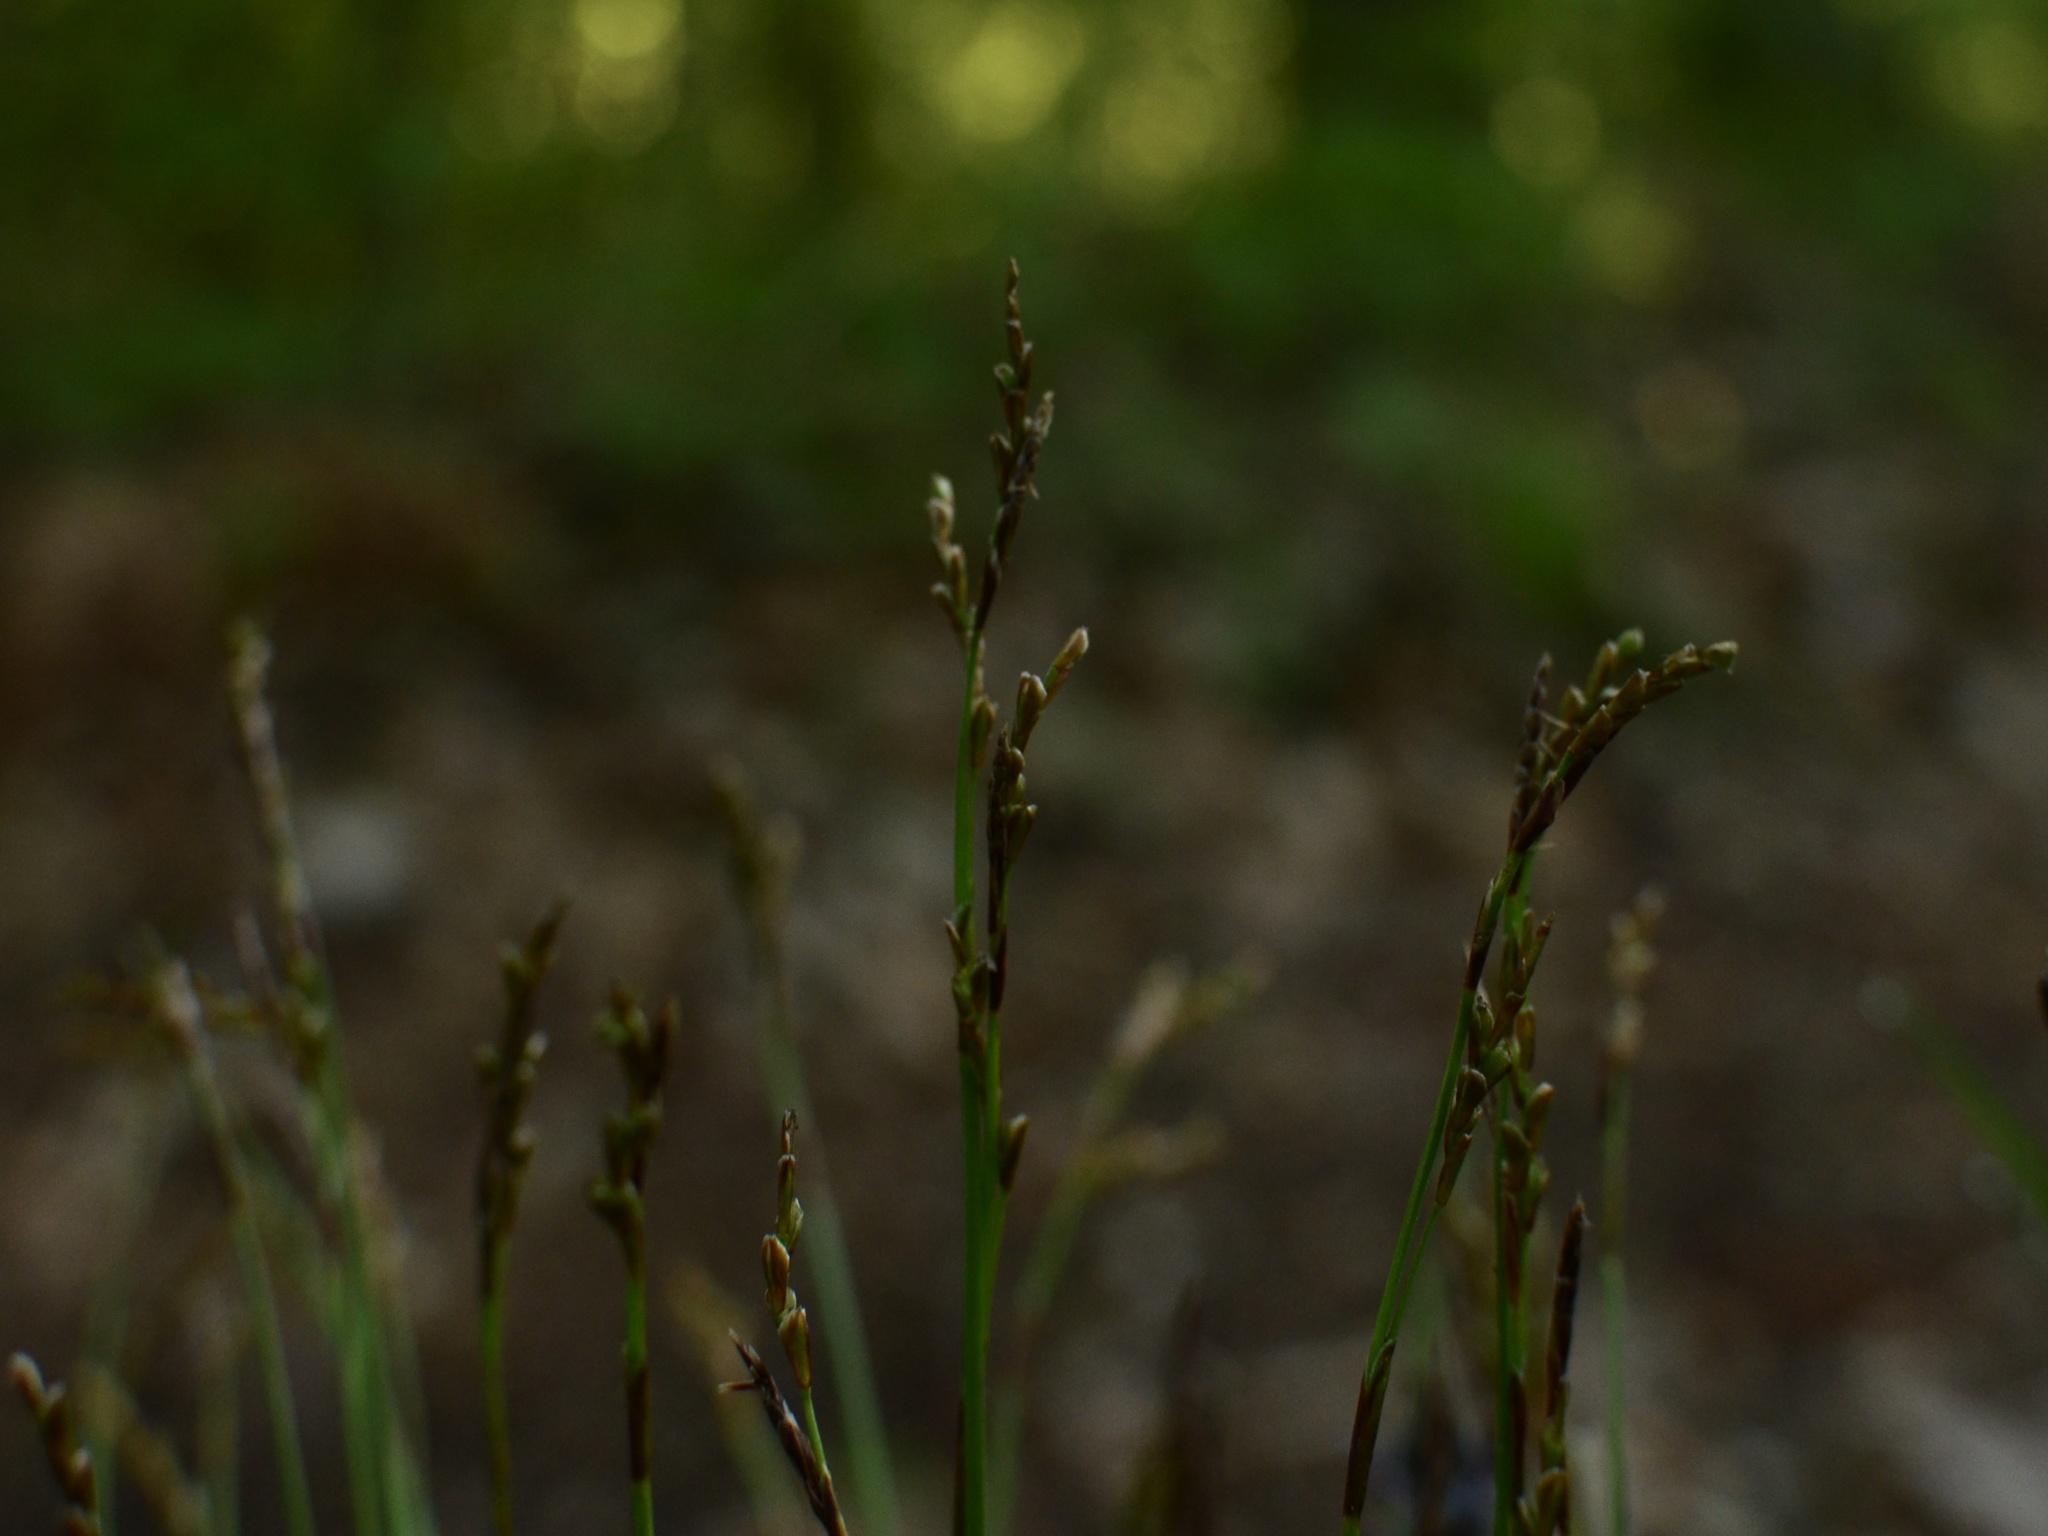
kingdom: Plantae
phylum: Tracheophyta
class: Liliopsida
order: Poales
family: Cyperaceae
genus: Carex
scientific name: Carex digitata
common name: Fingered sedge
